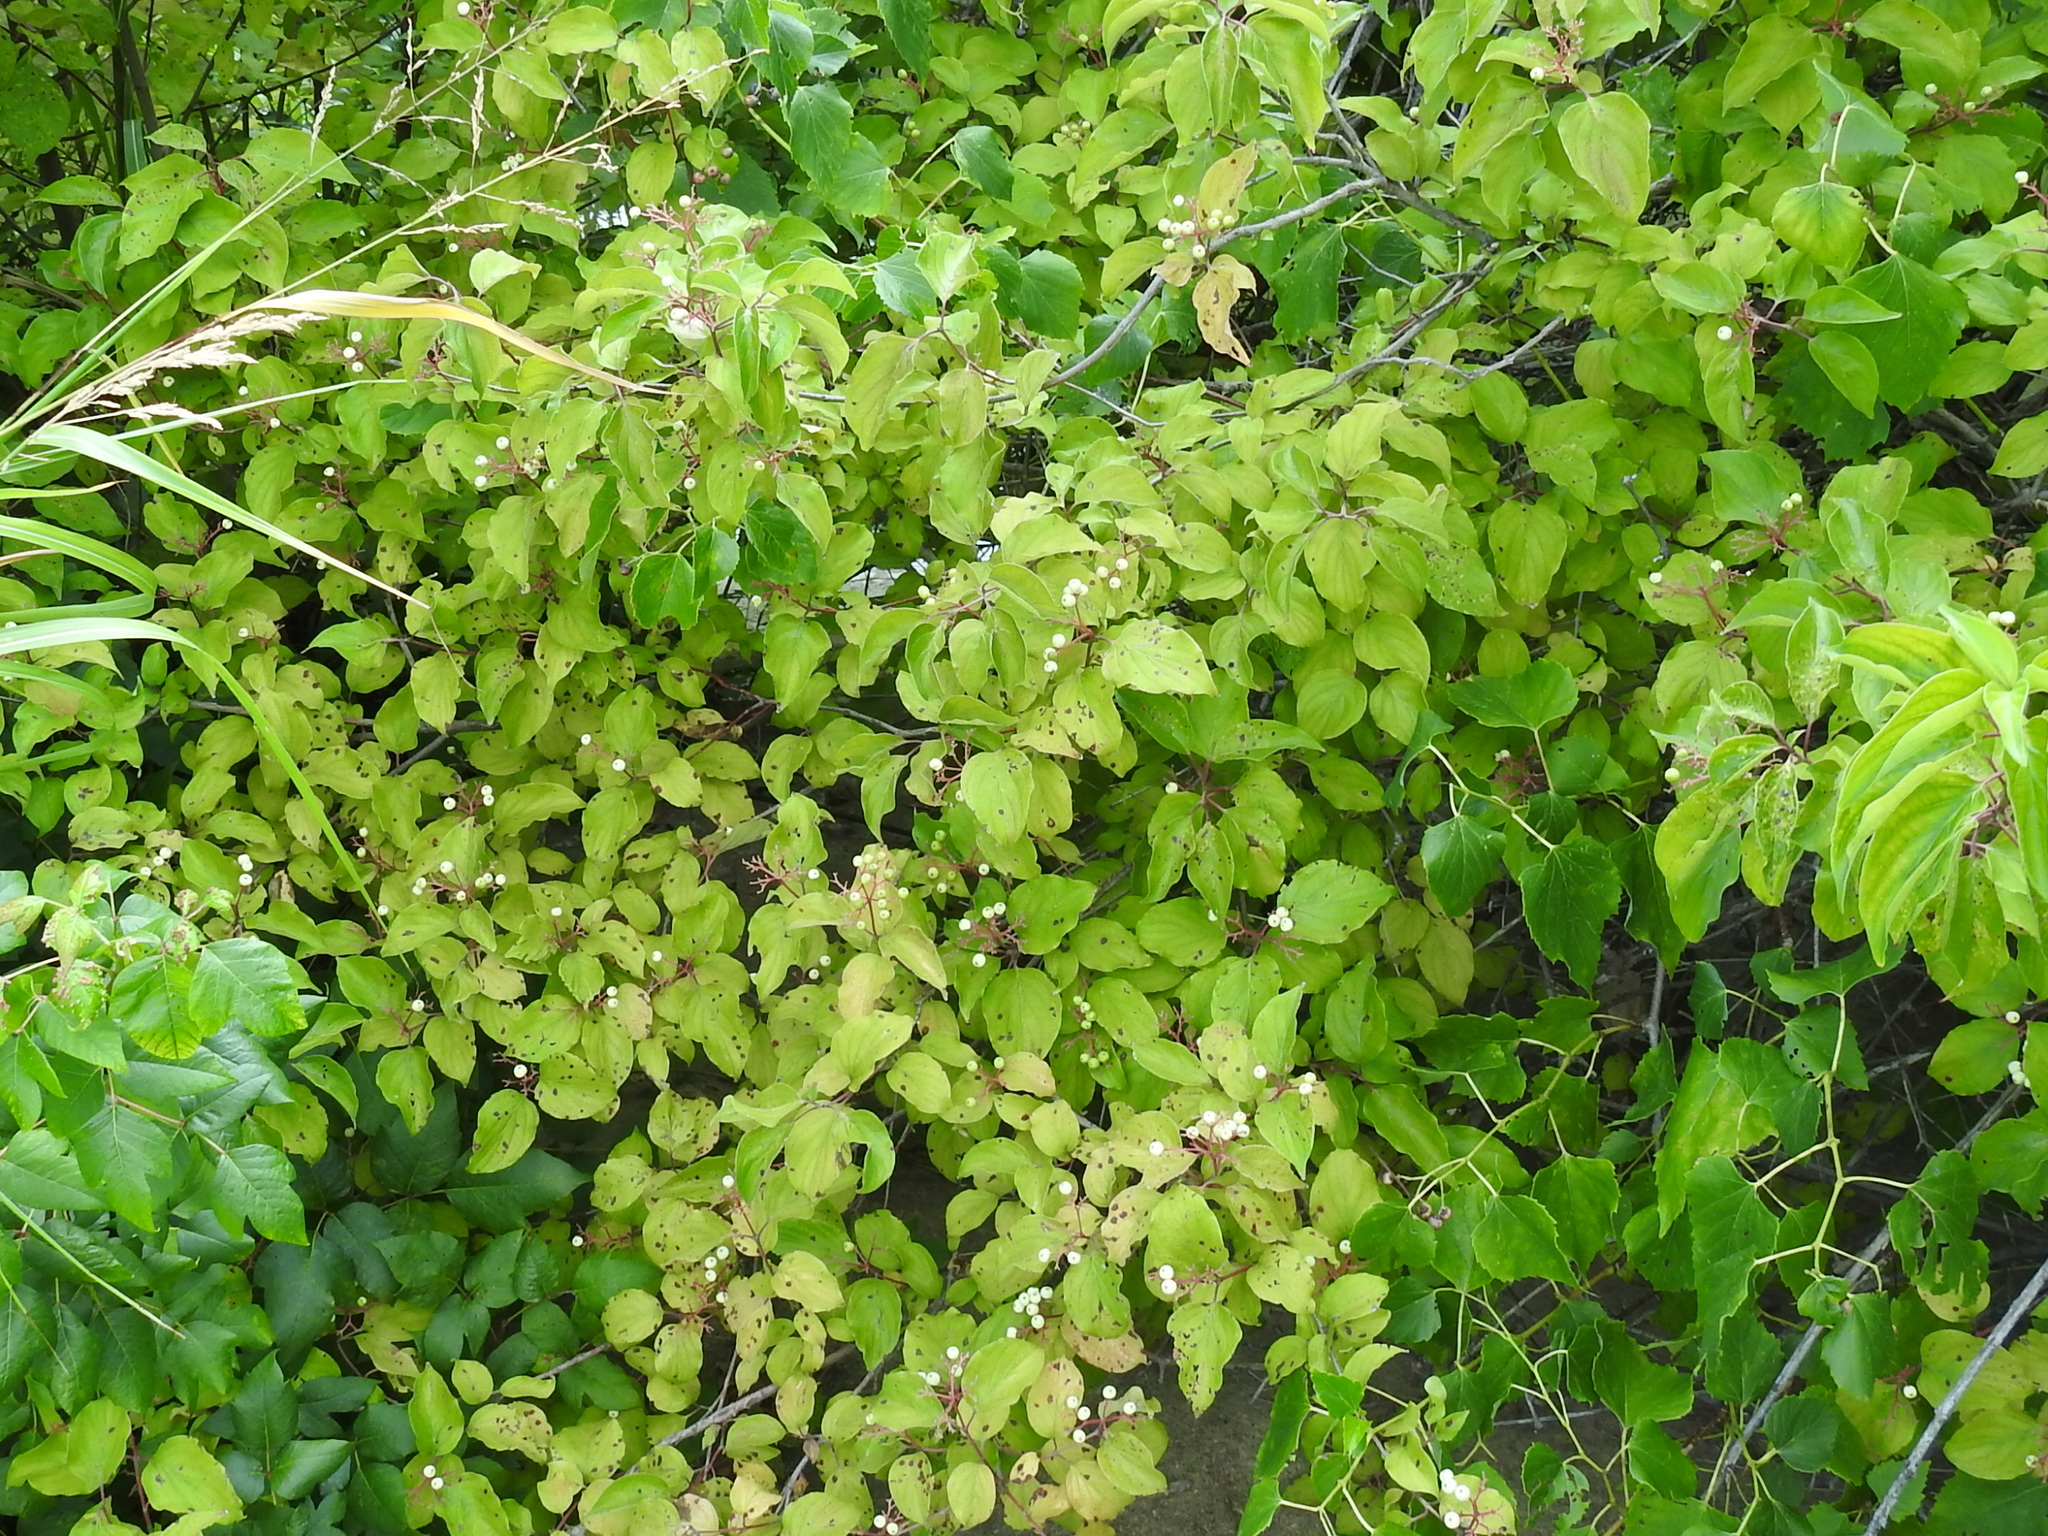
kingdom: Plantae
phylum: Tracheophyta
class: Magnoliopsida
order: Cornales
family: Cornaceae
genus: Cornus
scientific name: Cornus drummondii
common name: Rough-leaf dogwood
